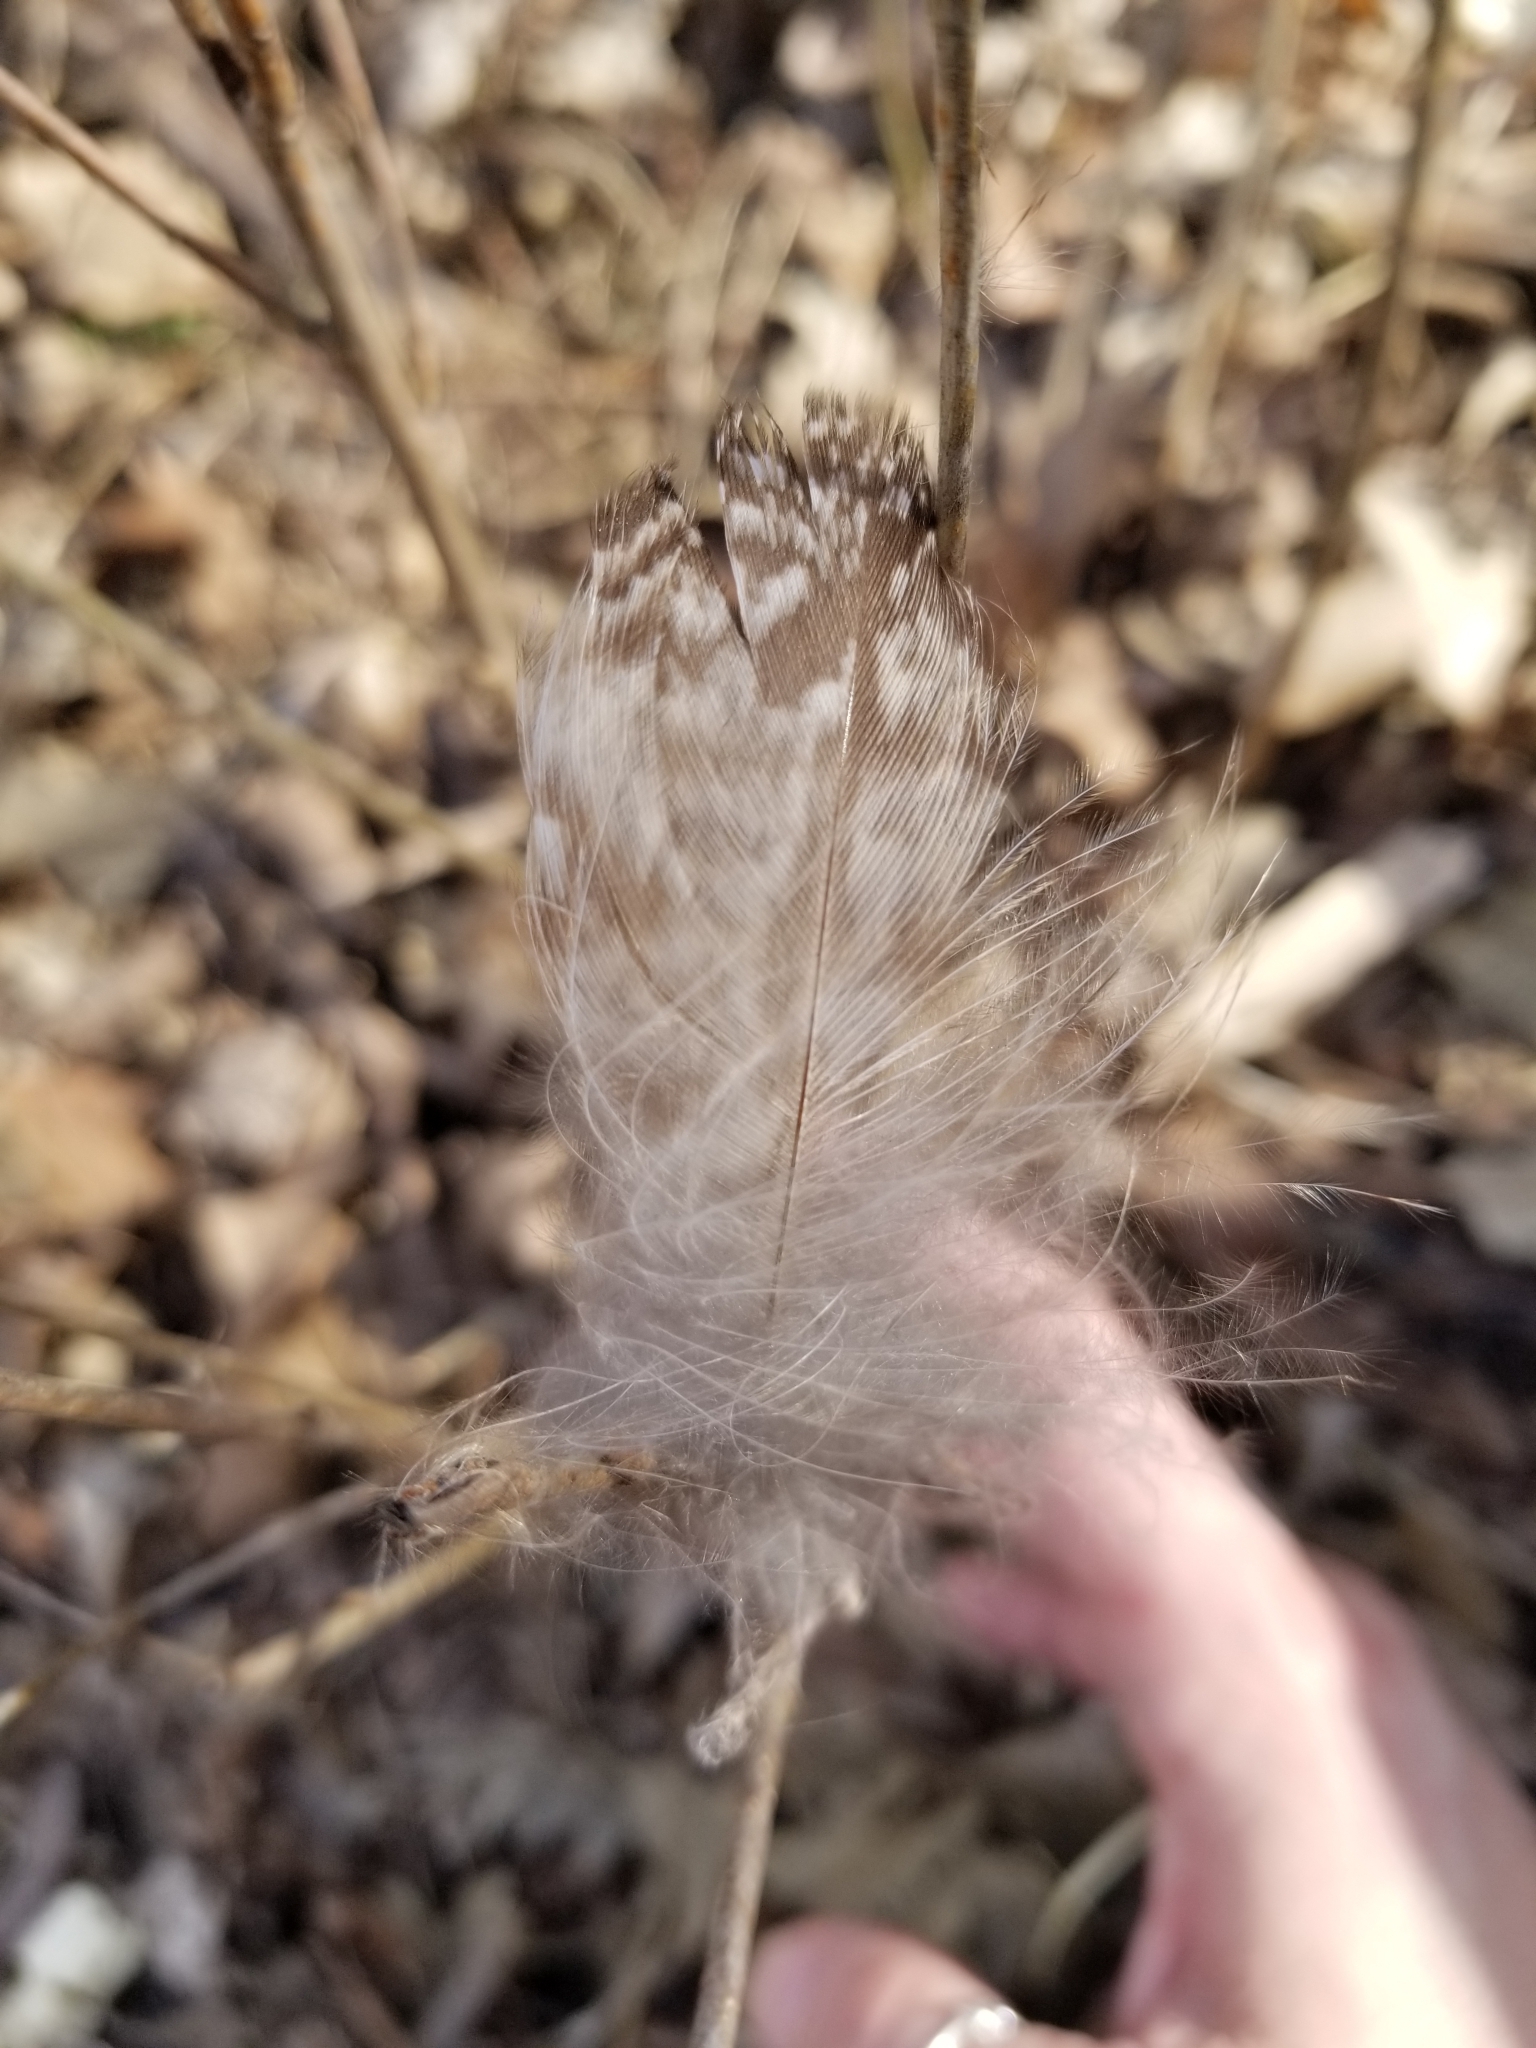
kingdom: Animalia
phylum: Chordata
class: Aves
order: Strigiformes
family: Strigidae
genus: Bubo
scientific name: Bubo virginianus
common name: Great horned owl
